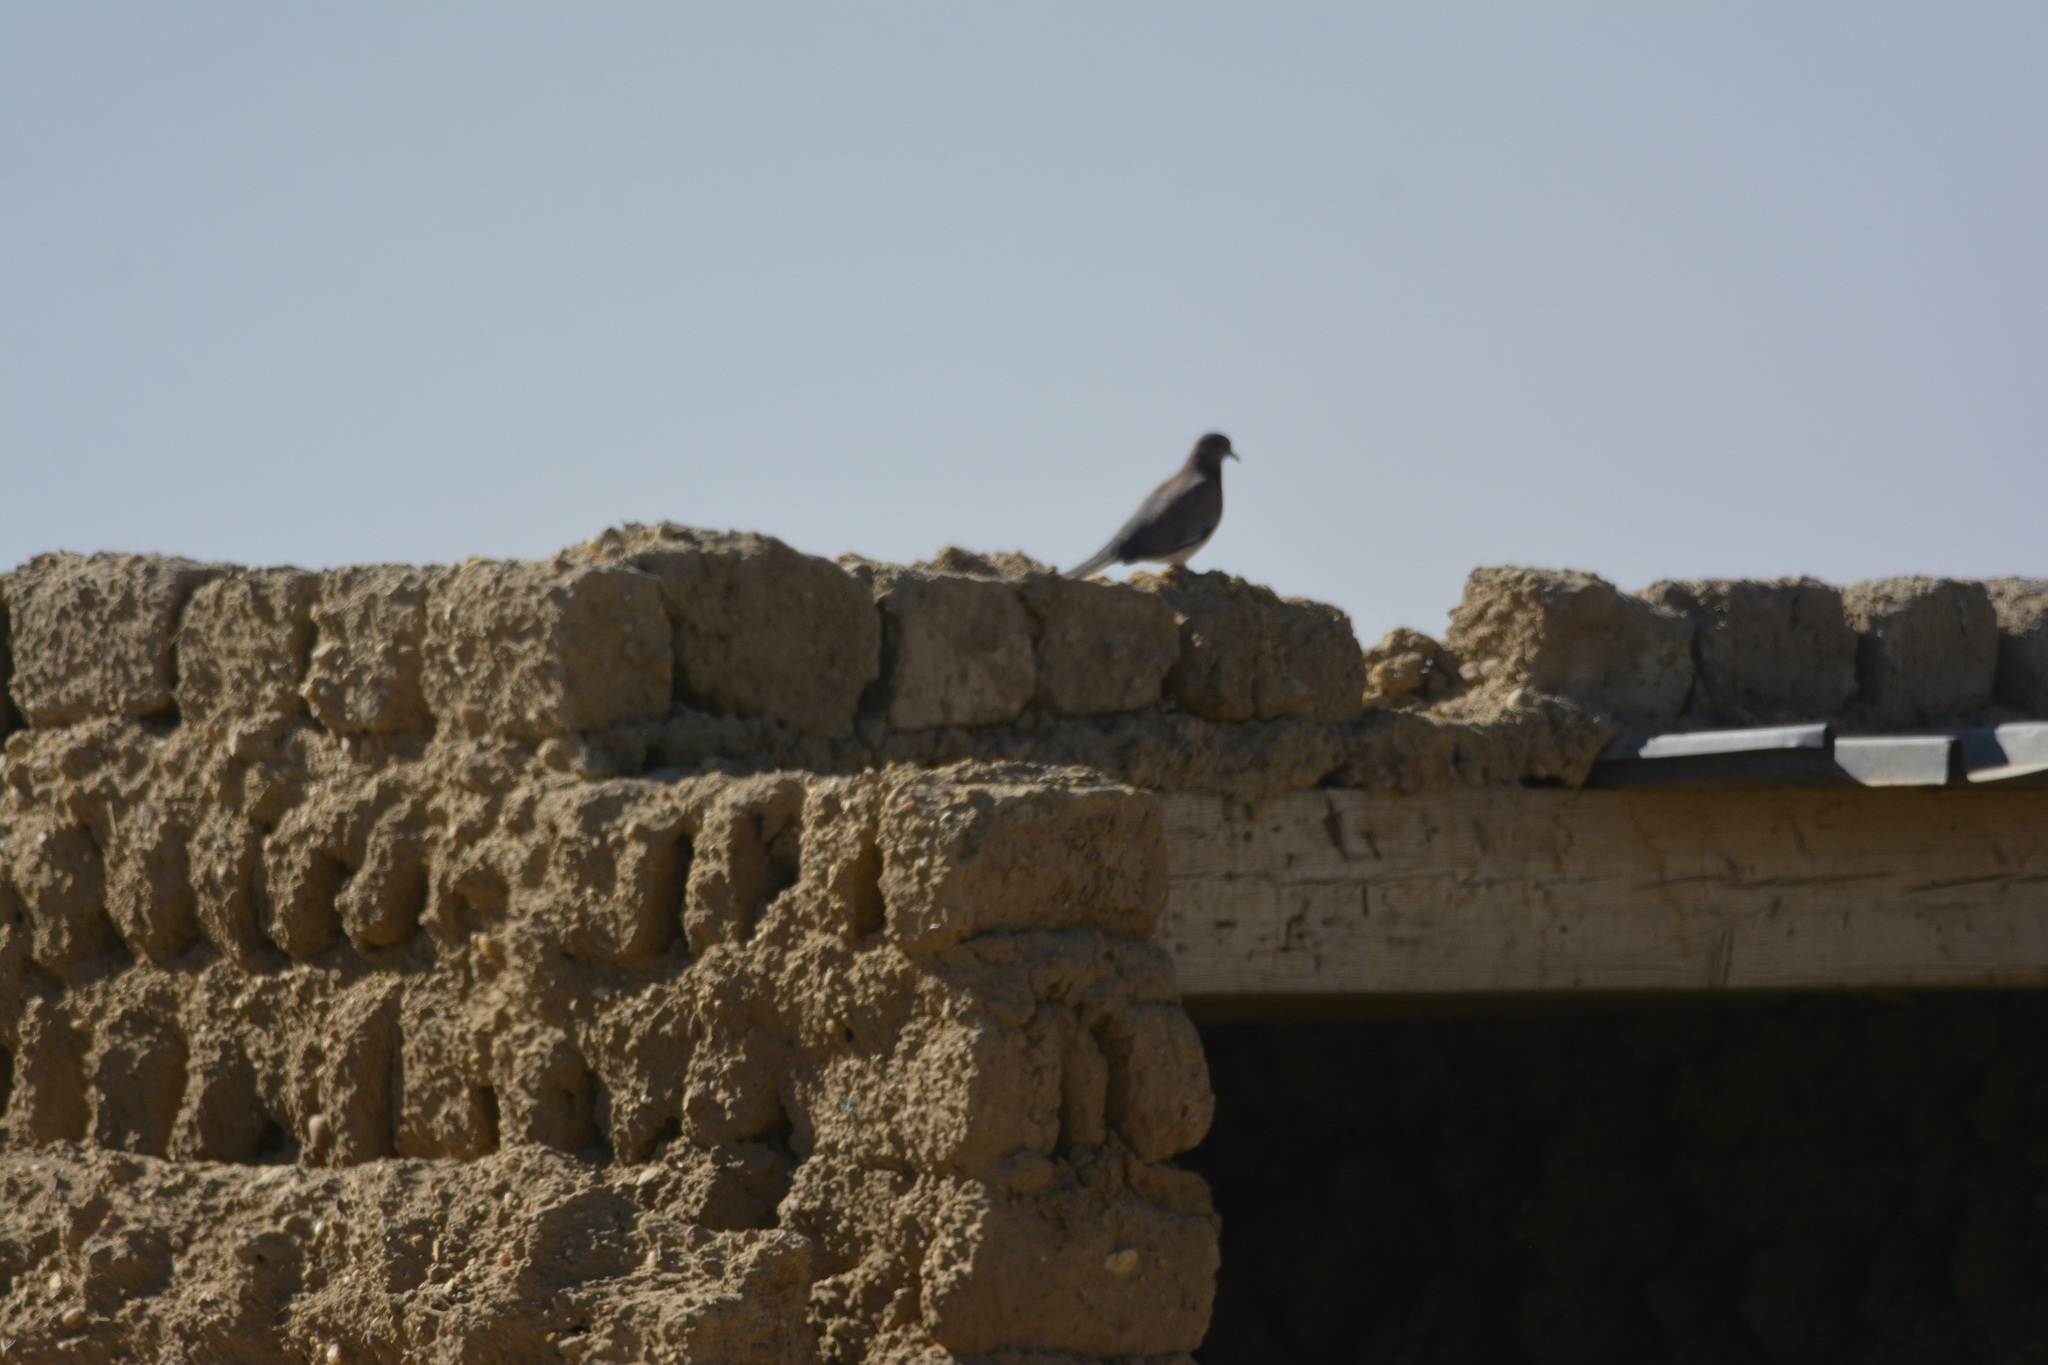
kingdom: Animalia
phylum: Chordata
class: Aves
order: Columbiformes
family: Columbidae
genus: Spilopelia
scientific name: Spilopelia senegalensis
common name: Laughing dove
